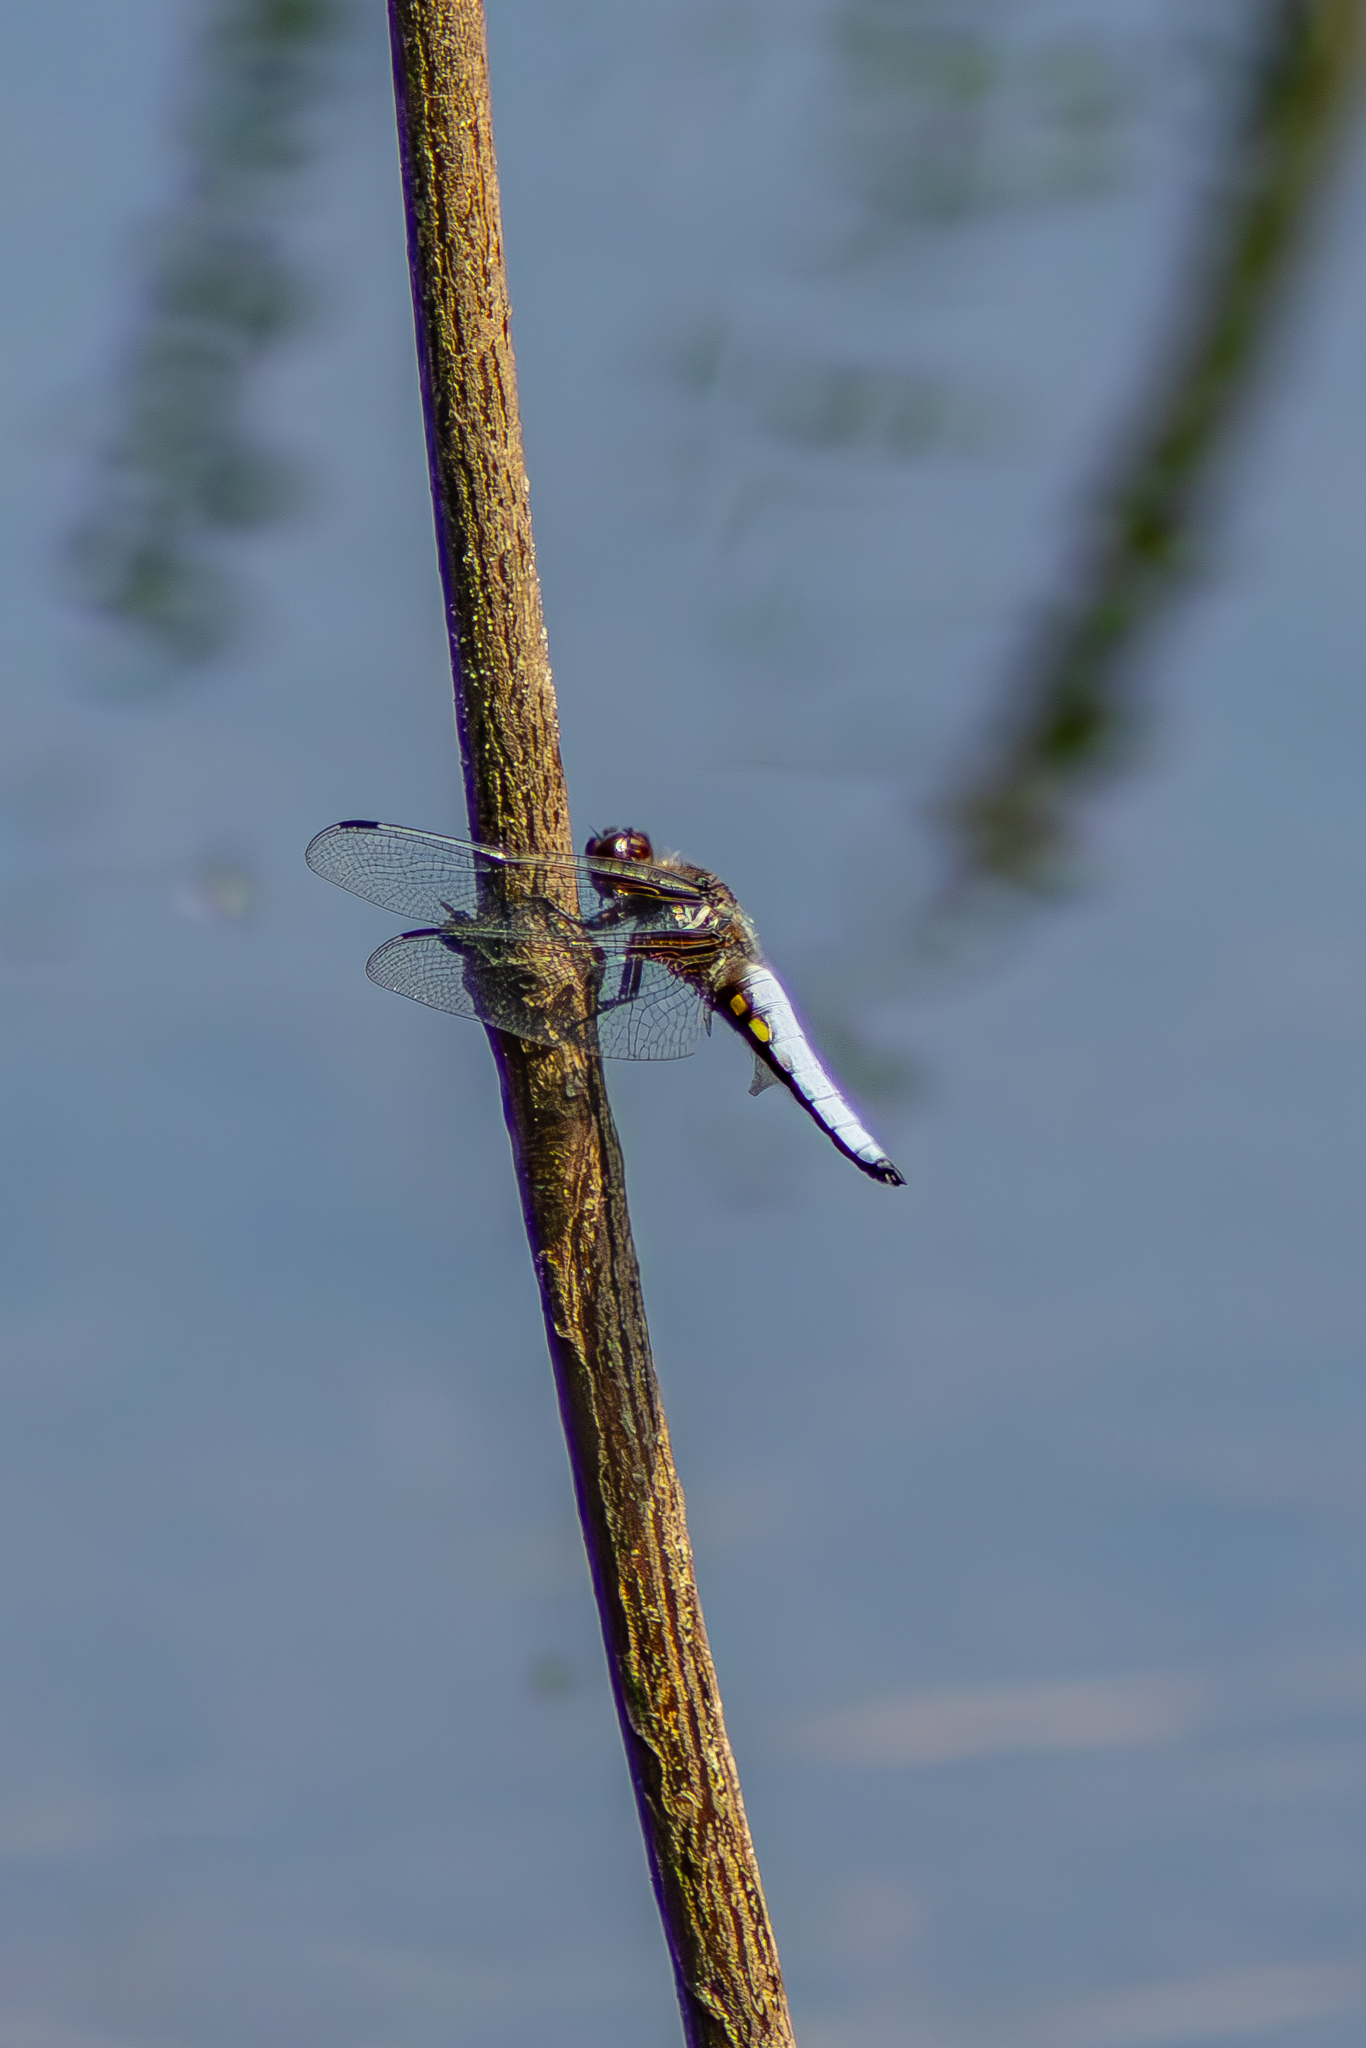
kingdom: Animalia
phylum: Arthropoda
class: Insecta
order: Odonata
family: Libellulidae
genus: Libellula
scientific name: Libellula depressa
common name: Broad-bodied chaser
